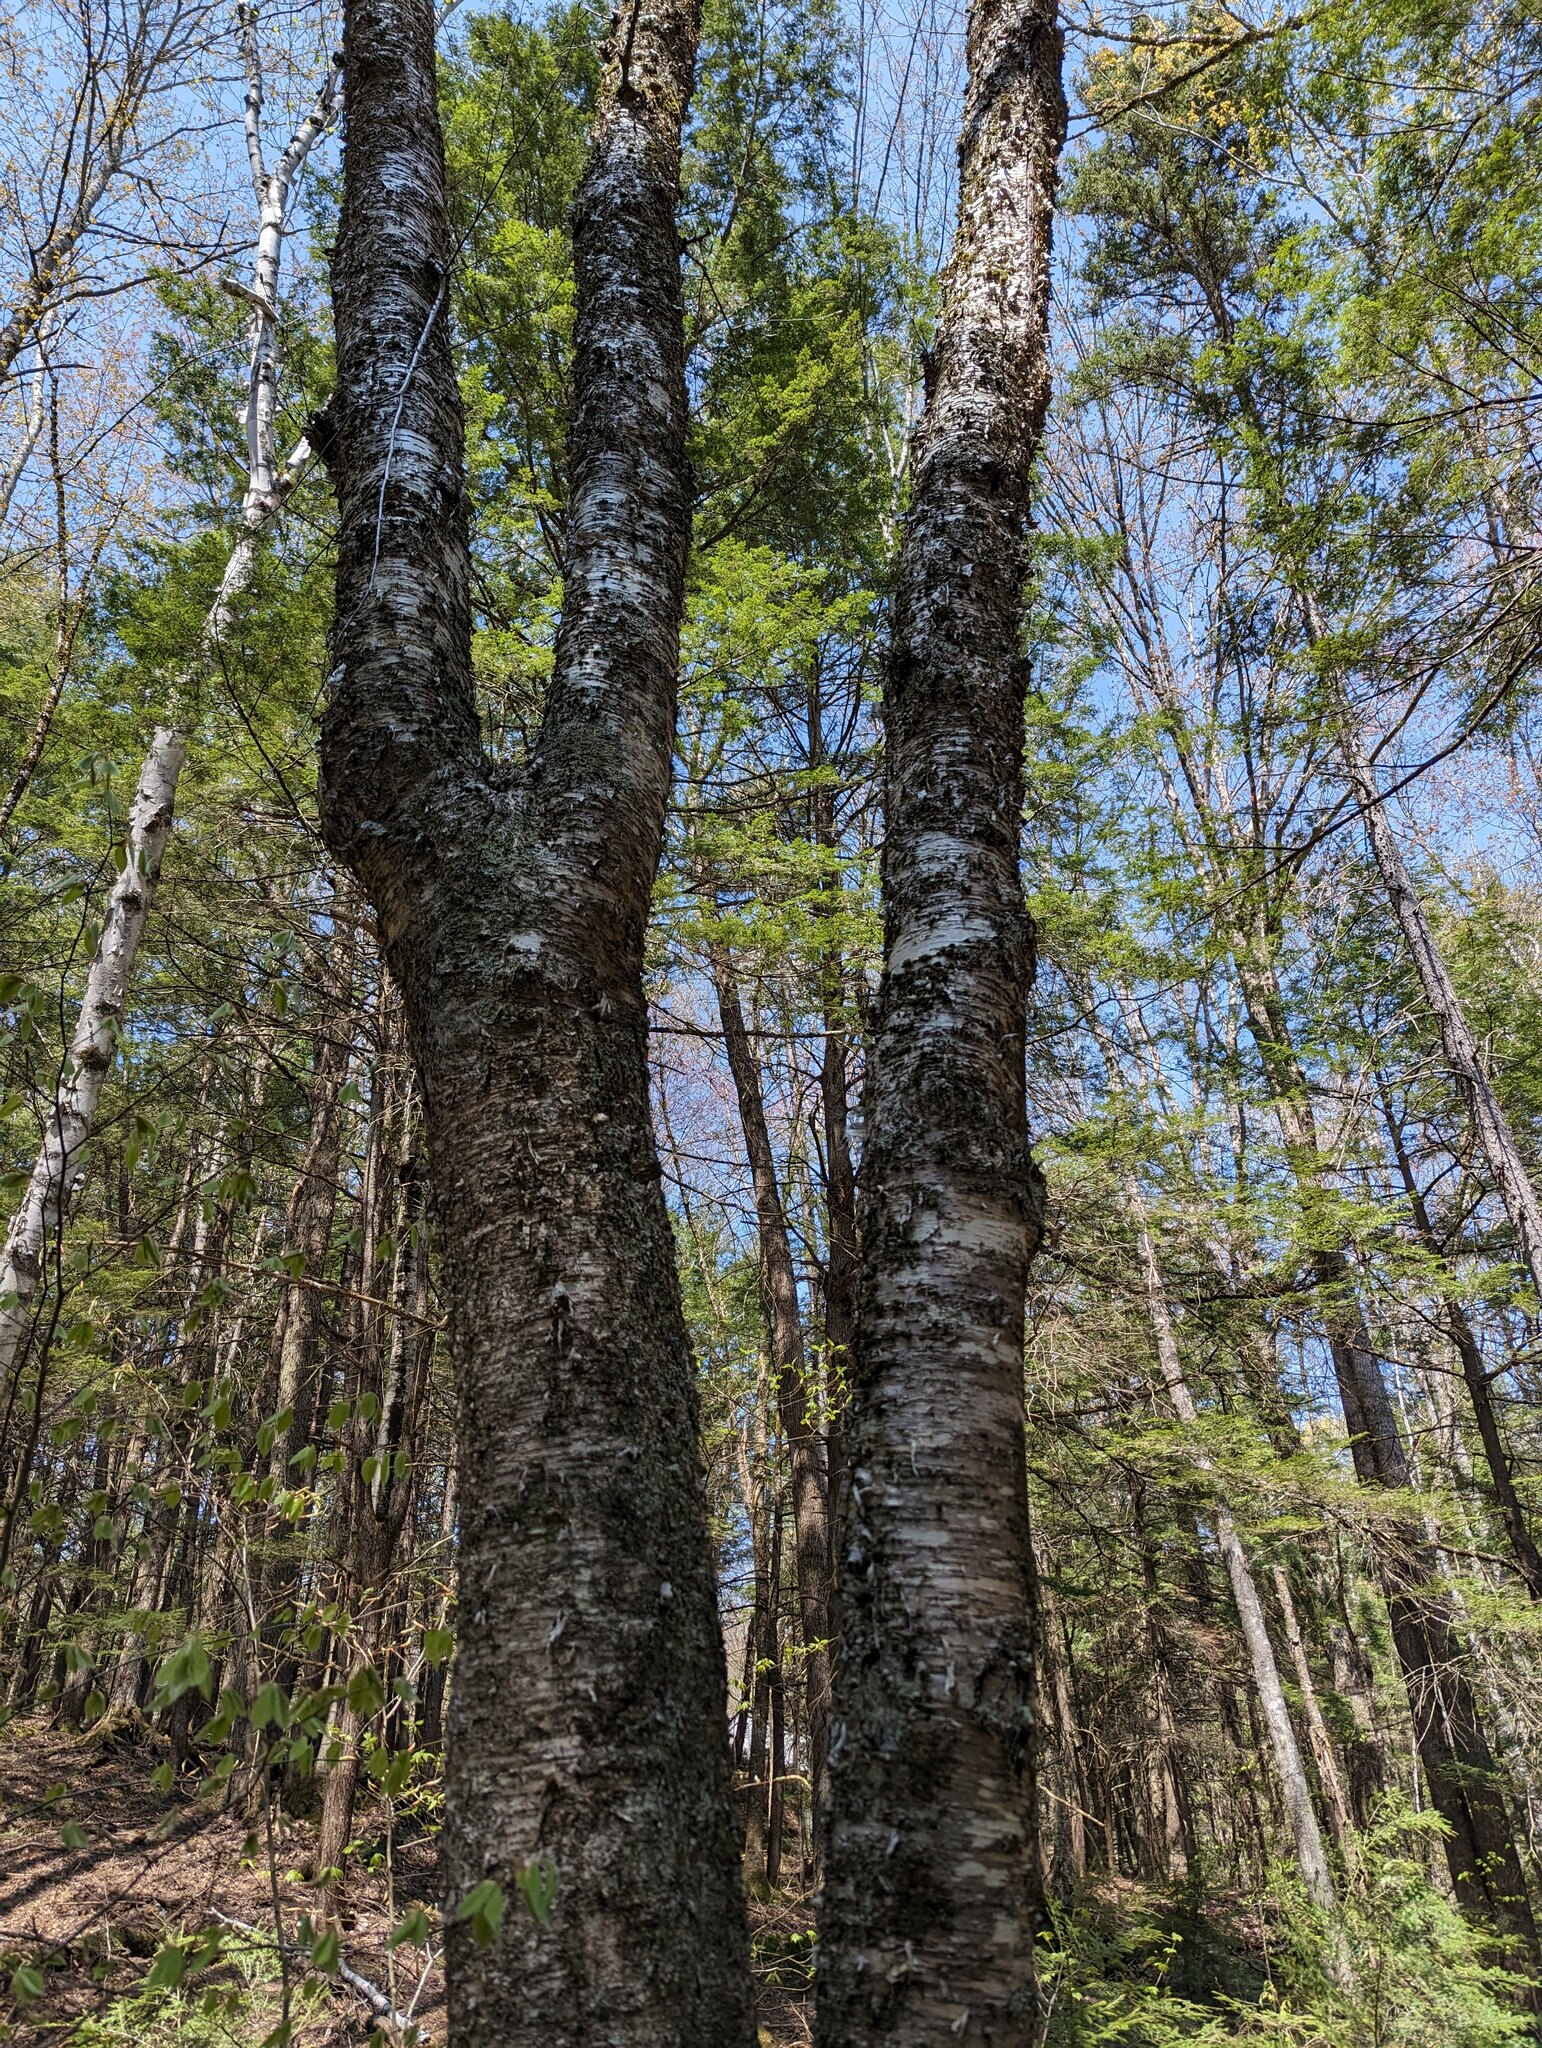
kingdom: Plantae
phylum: Tracheophyta
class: Magnoliopsida
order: Fagales
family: Betulaceae
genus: Betula
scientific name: Betula alleghaniensis
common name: Yellow birch
